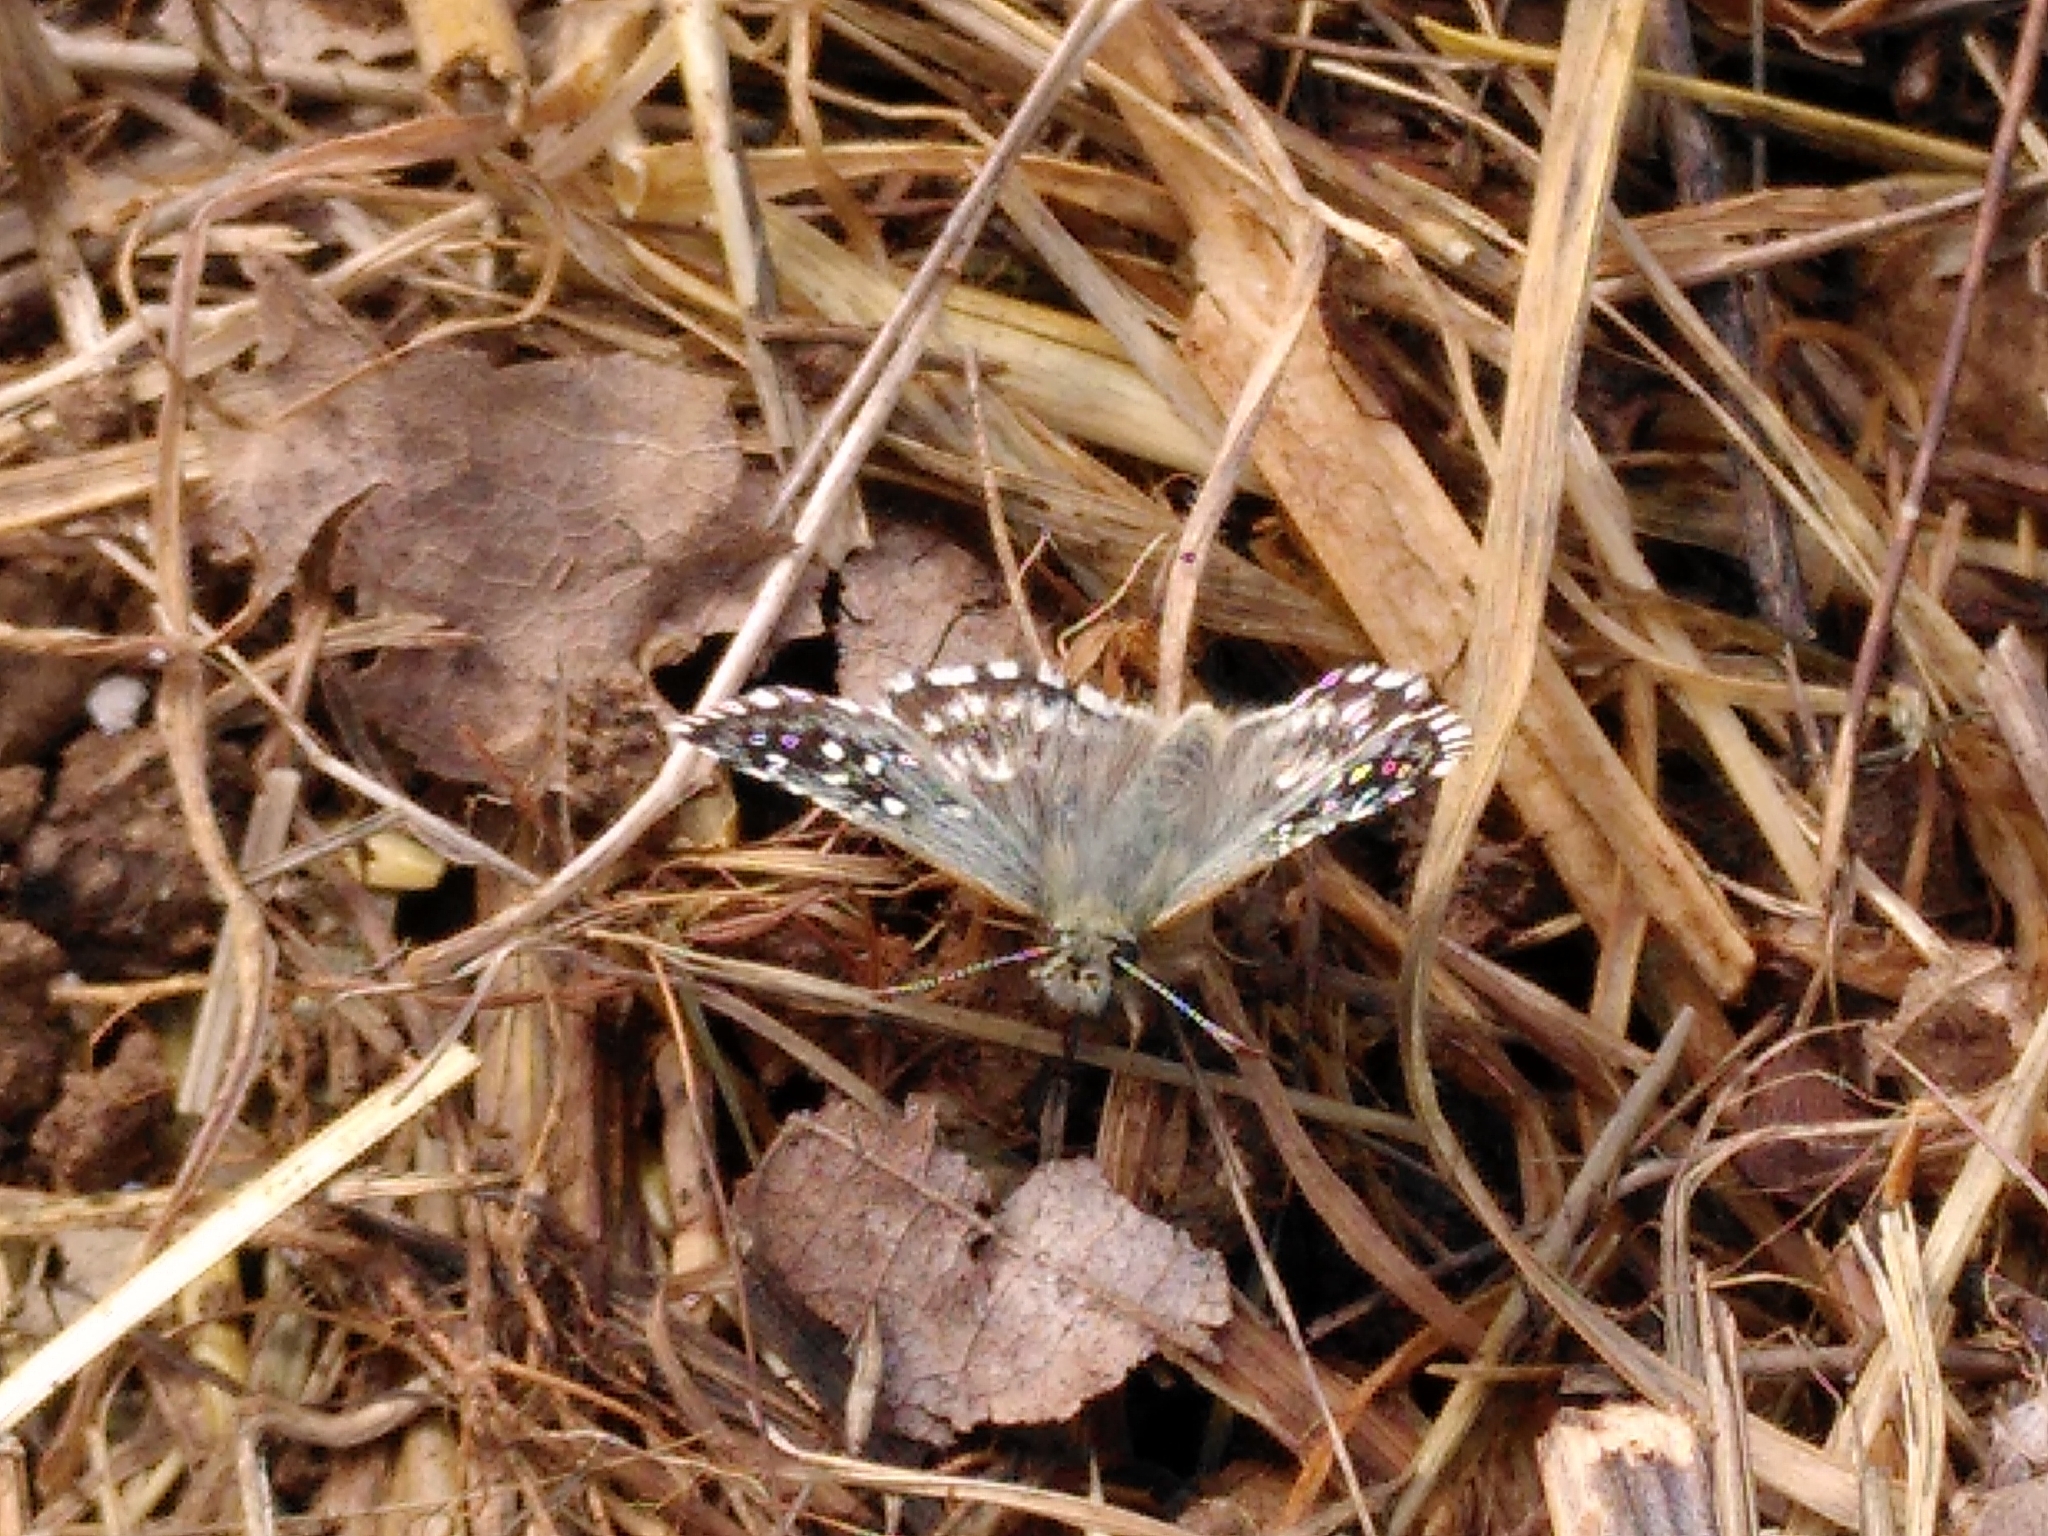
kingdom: Animalia
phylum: Arthropoda
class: Insecta
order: Lepidoptera
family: Hesperiidae
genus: Pyrgus
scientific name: Pyrgus malvoides
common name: Southern grizzled skipper
